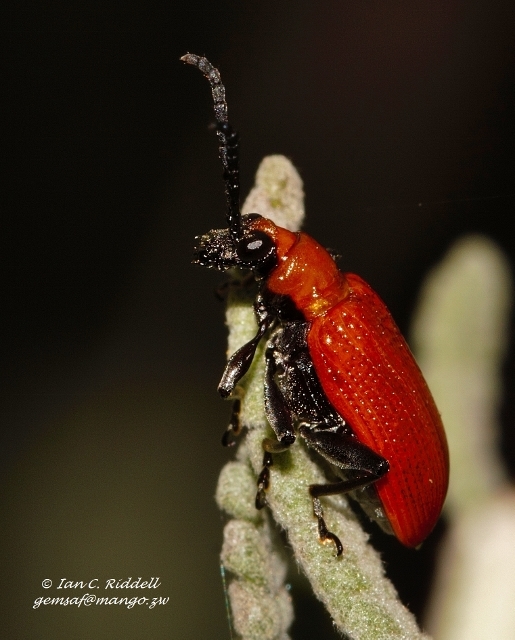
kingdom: Animalia
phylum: Arthropoda
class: Insecta
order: Coleoptera
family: Chrysomelidae
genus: Lema
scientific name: Lema
